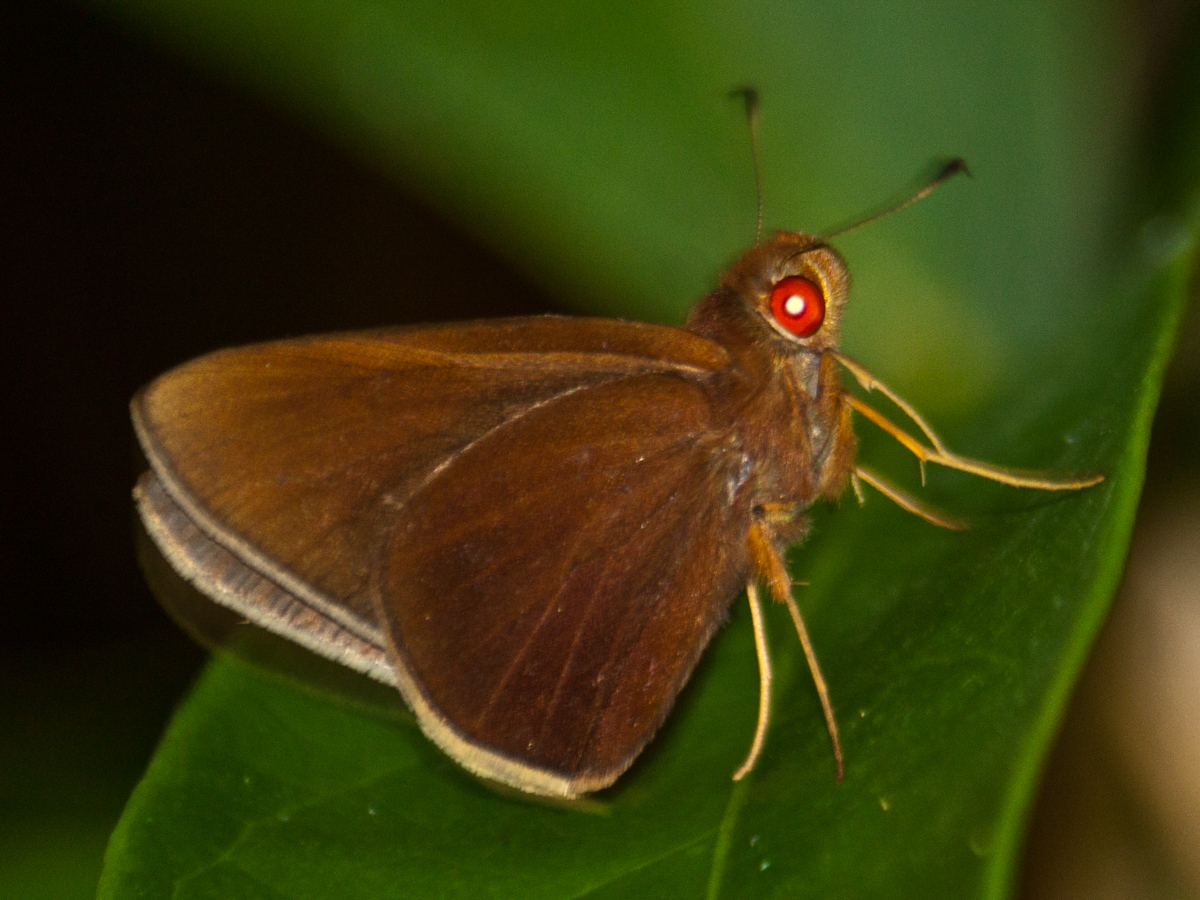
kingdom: Animalia
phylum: Arthropoda
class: Insecta
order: Lepidoptera
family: Hesperiidae
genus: Matapa
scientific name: Matapa aria
